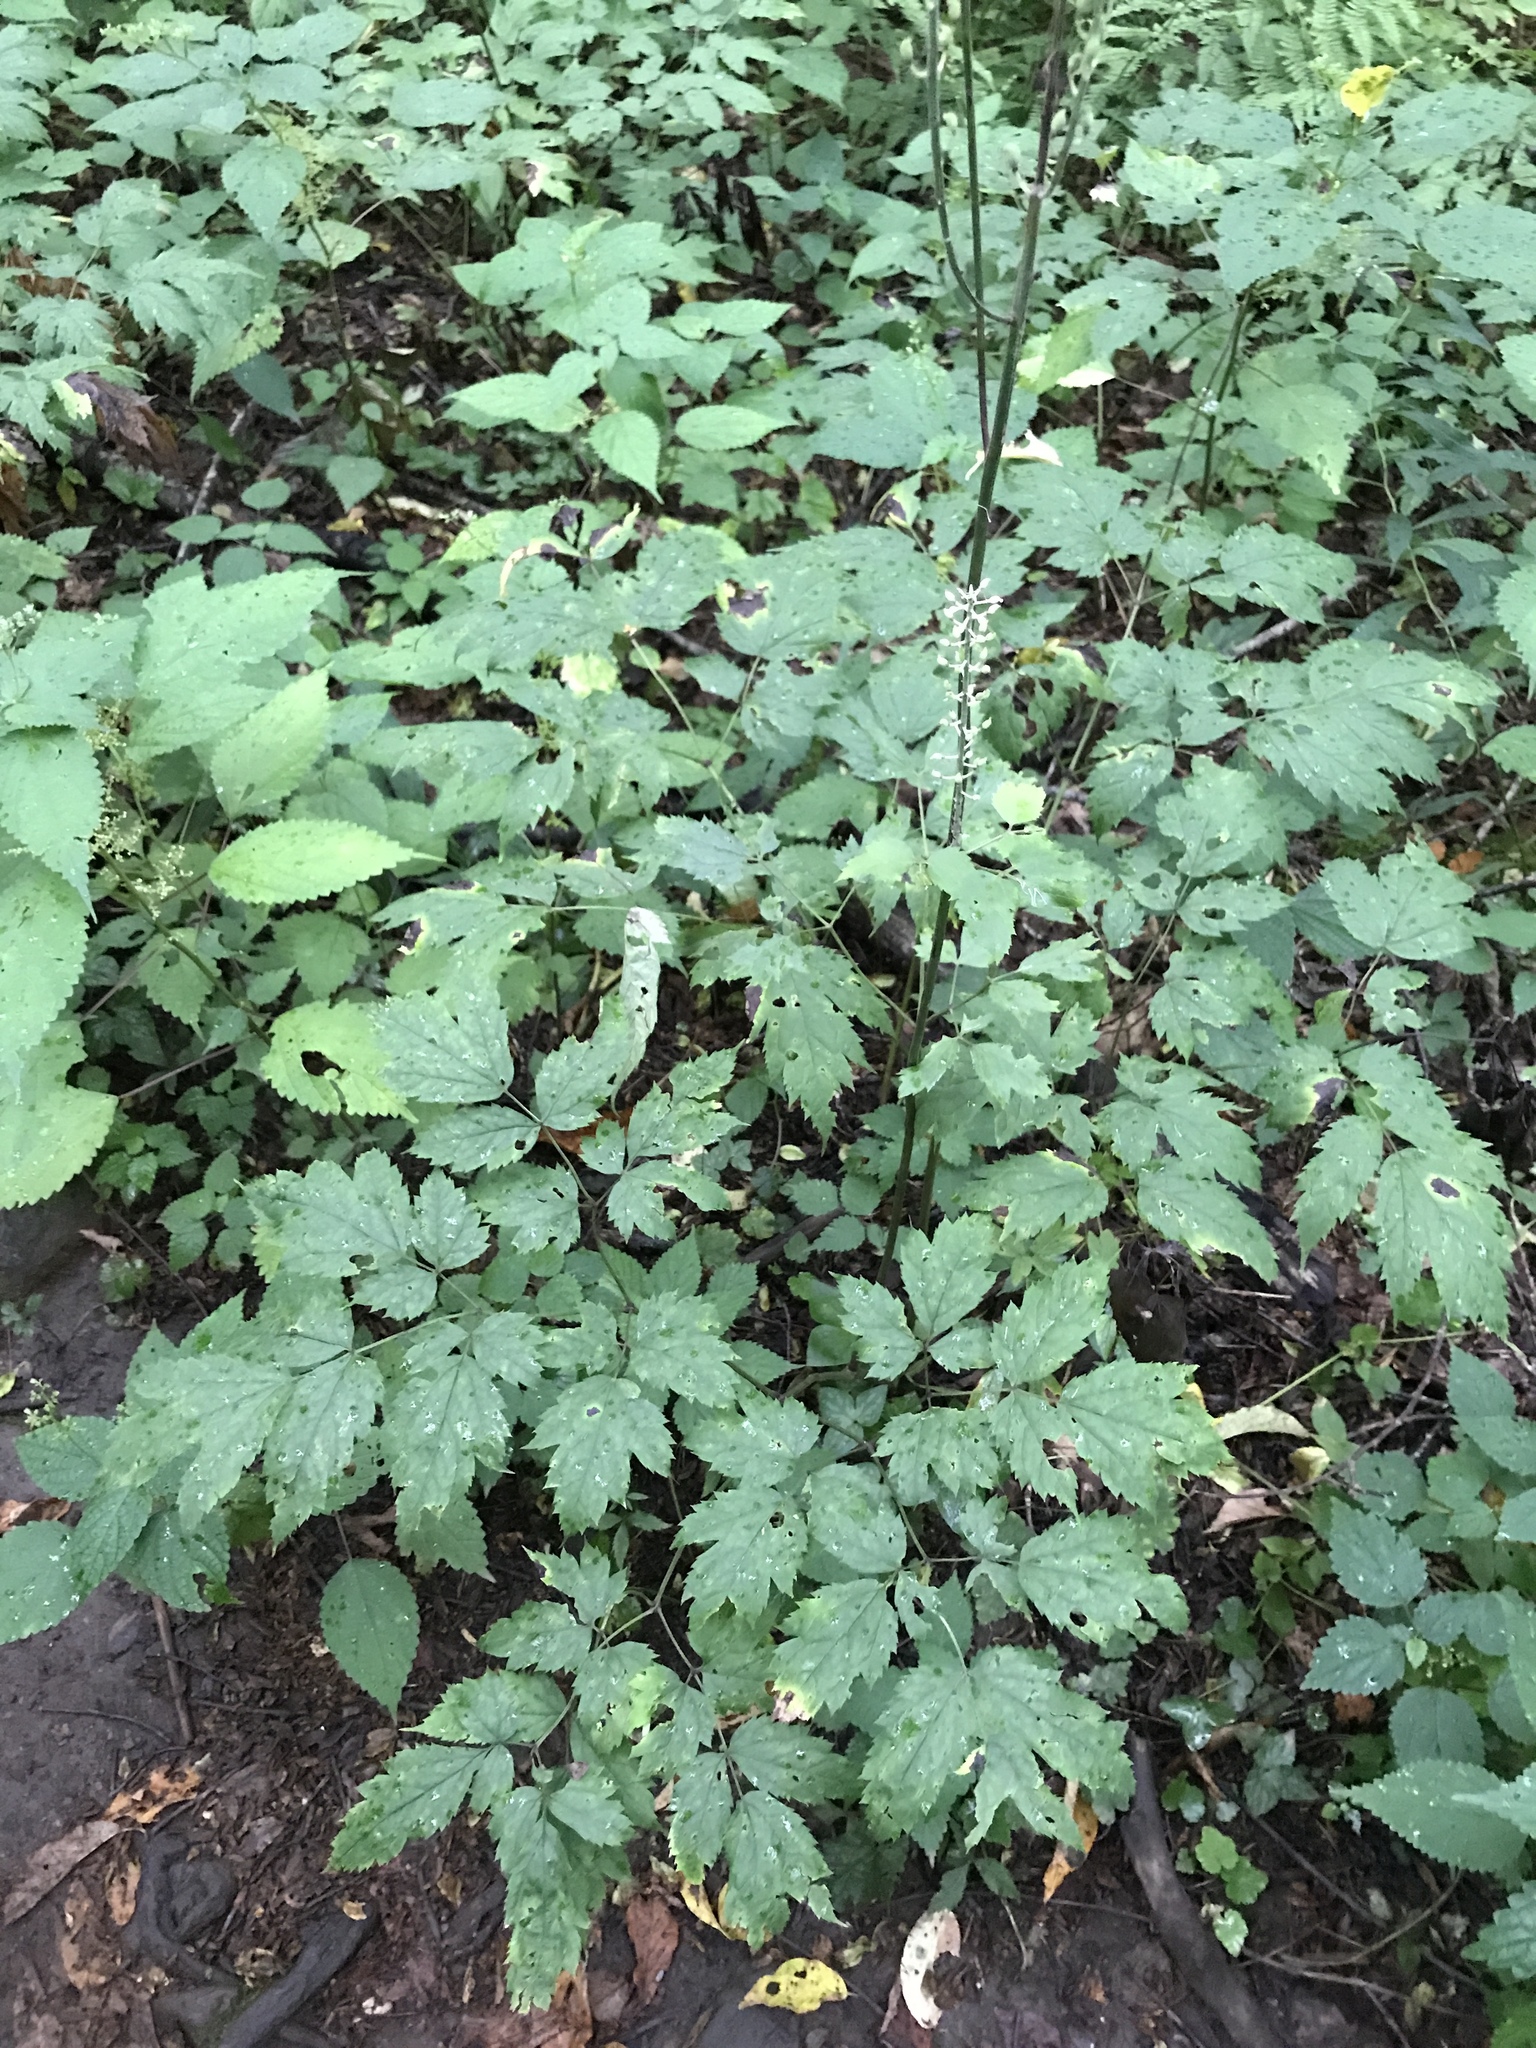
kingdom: Plantae
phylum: Tracheophyta
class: Magnoliopsida
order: Ranunculales
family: Ranunculaceae
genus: Actaea
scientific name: Actaea racemosa
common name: Black cohosh
